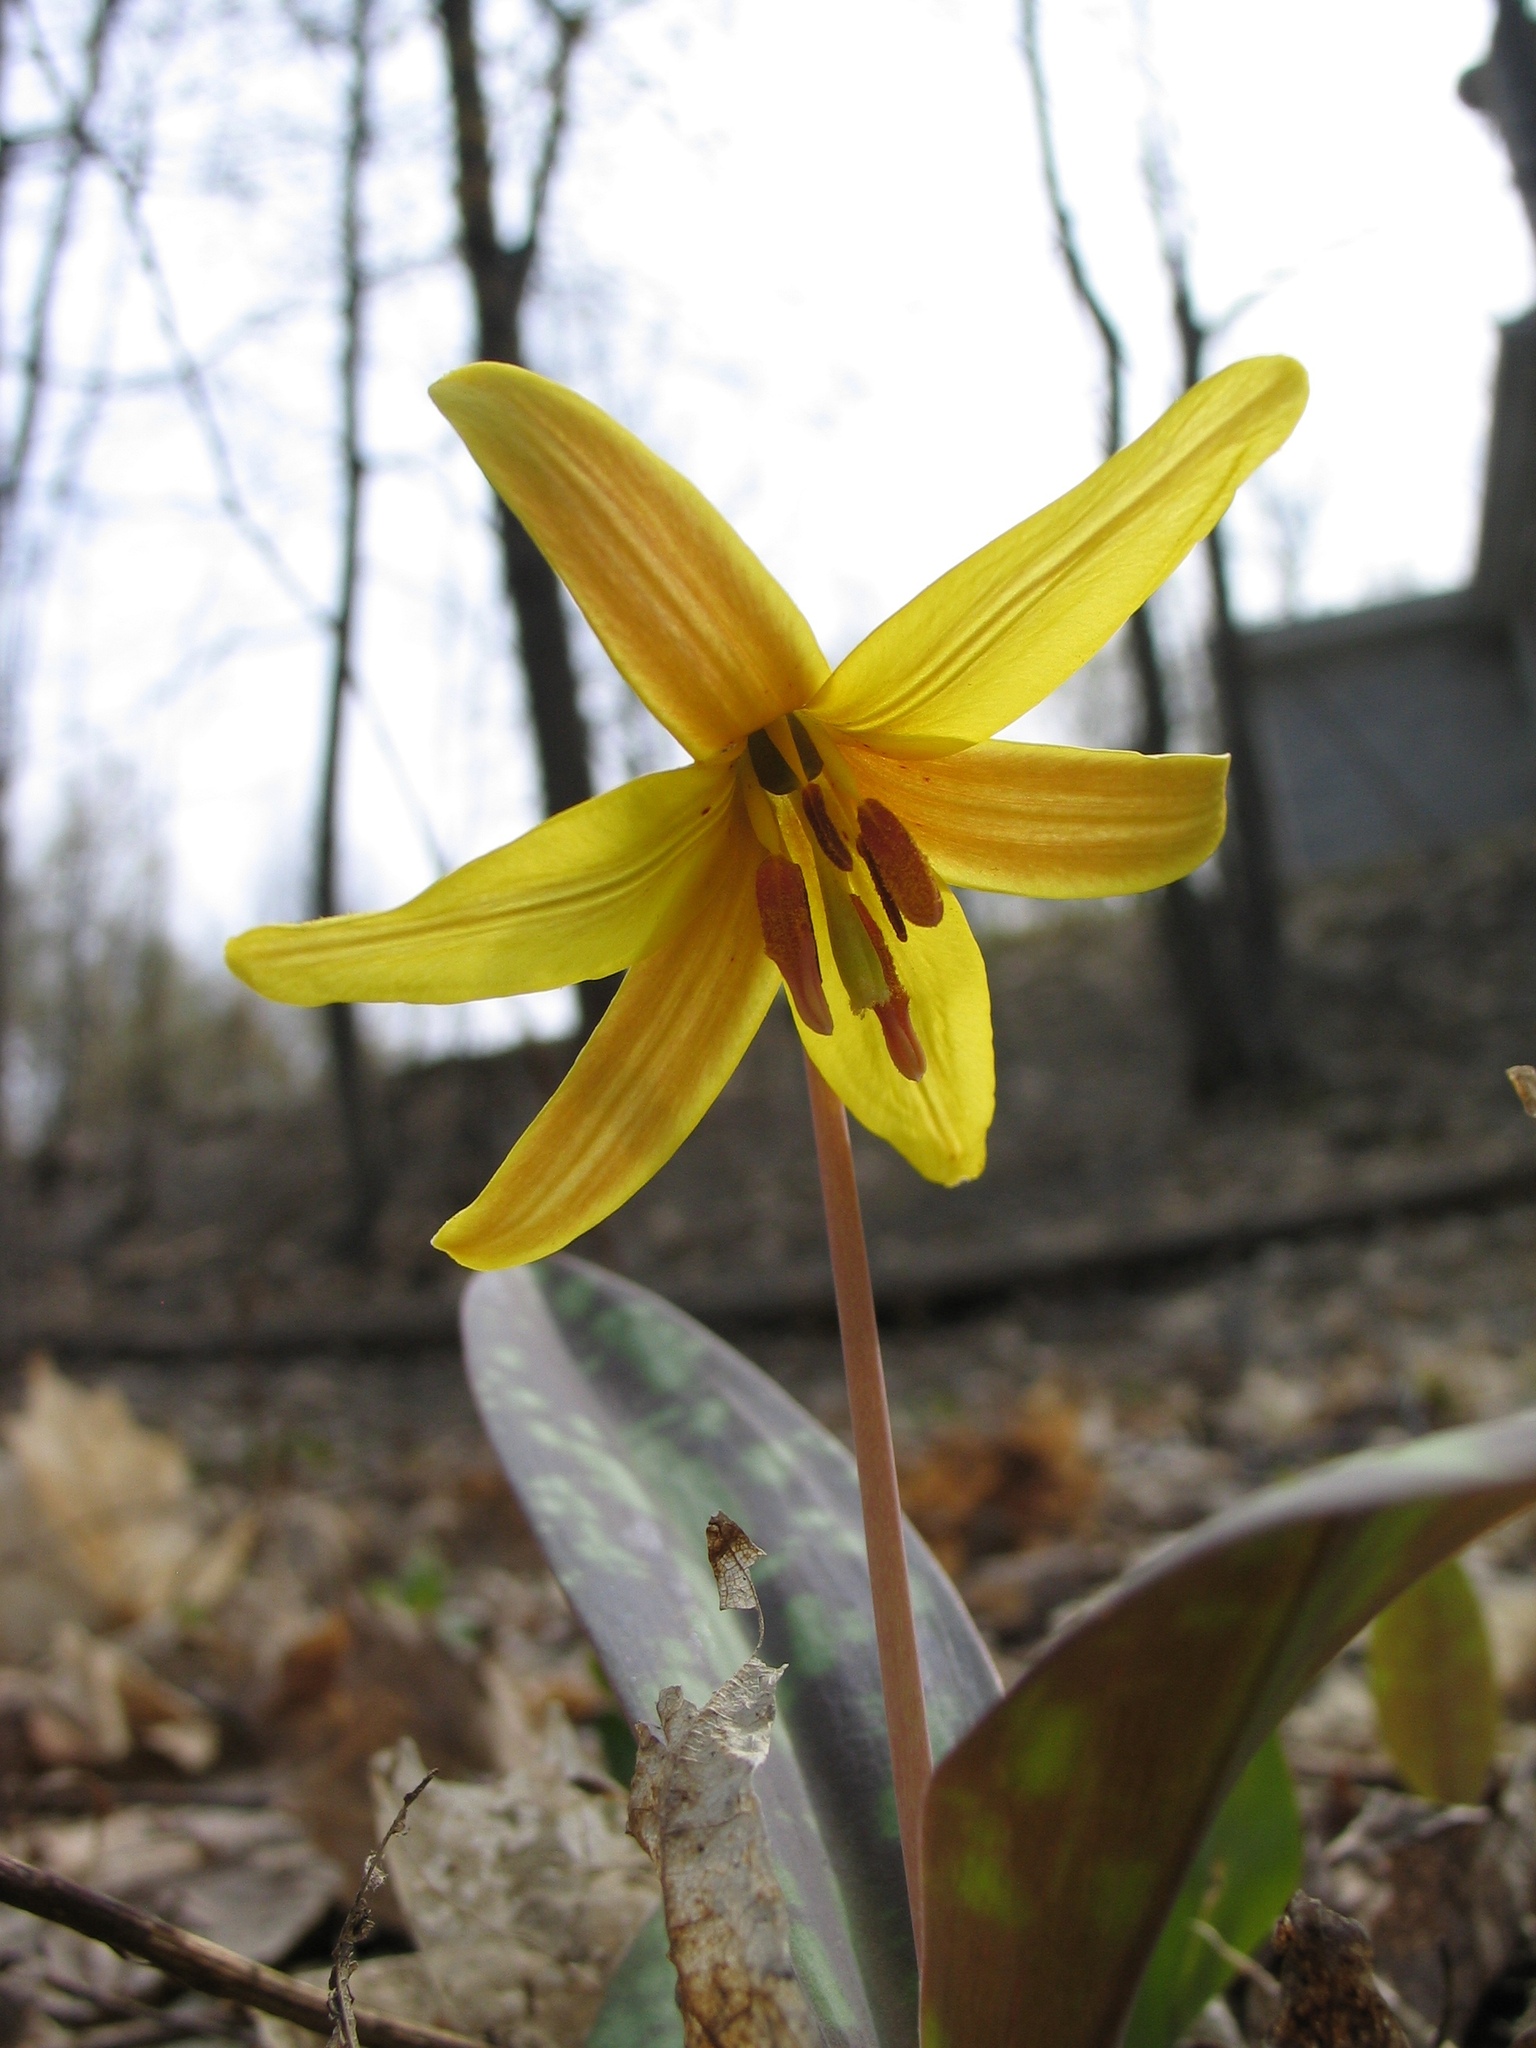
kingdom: Plantae
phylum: Tracheophyta
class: Liliopsida
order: Liliales
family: Liliaceae
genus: Erythronium
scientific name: Erythronium americanum
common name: Yellow adder's-tongue
